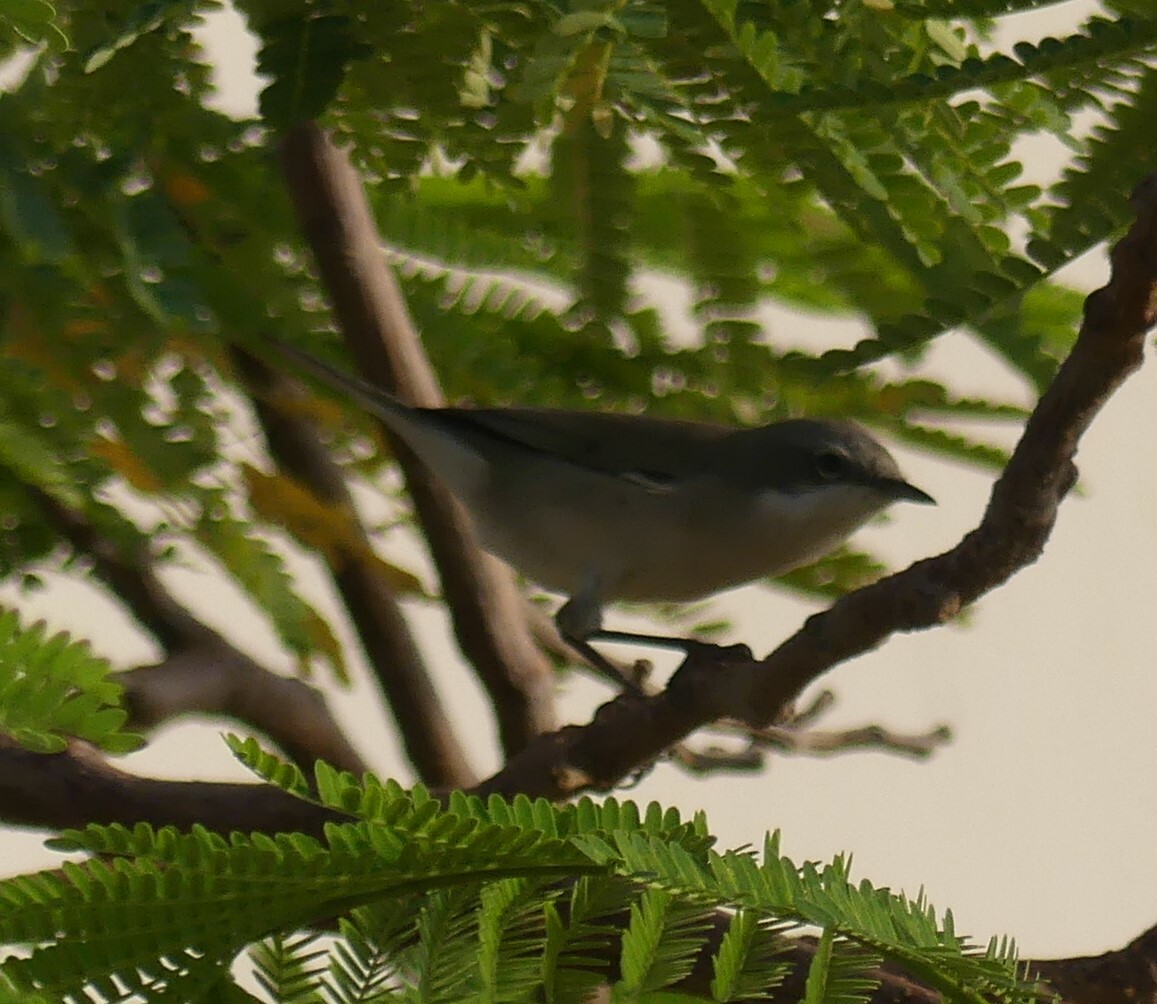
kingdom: Animalia
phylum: Chordata
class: Aves
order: Passeriformes
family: Sylviidae
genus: Sylvia
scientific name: Sylvia curruca
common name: Lesser whitethroat
